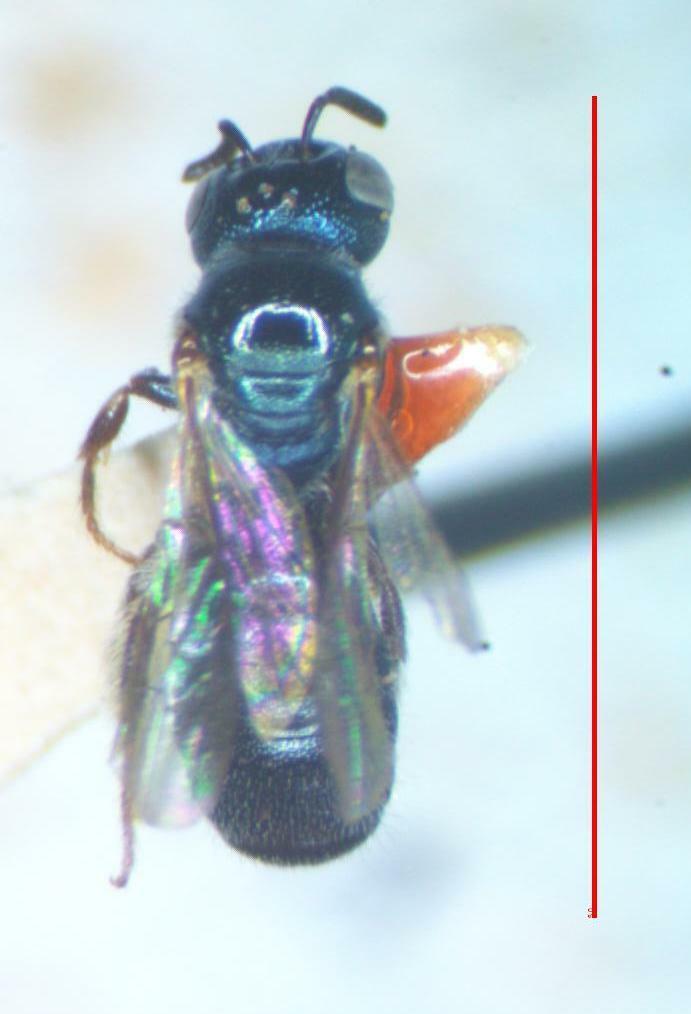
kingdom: Animalia
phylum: Arthropoda
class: Insecta
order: Hymenoptera
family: Apidae
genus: Zadontomerus
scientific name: Zadontomerus
